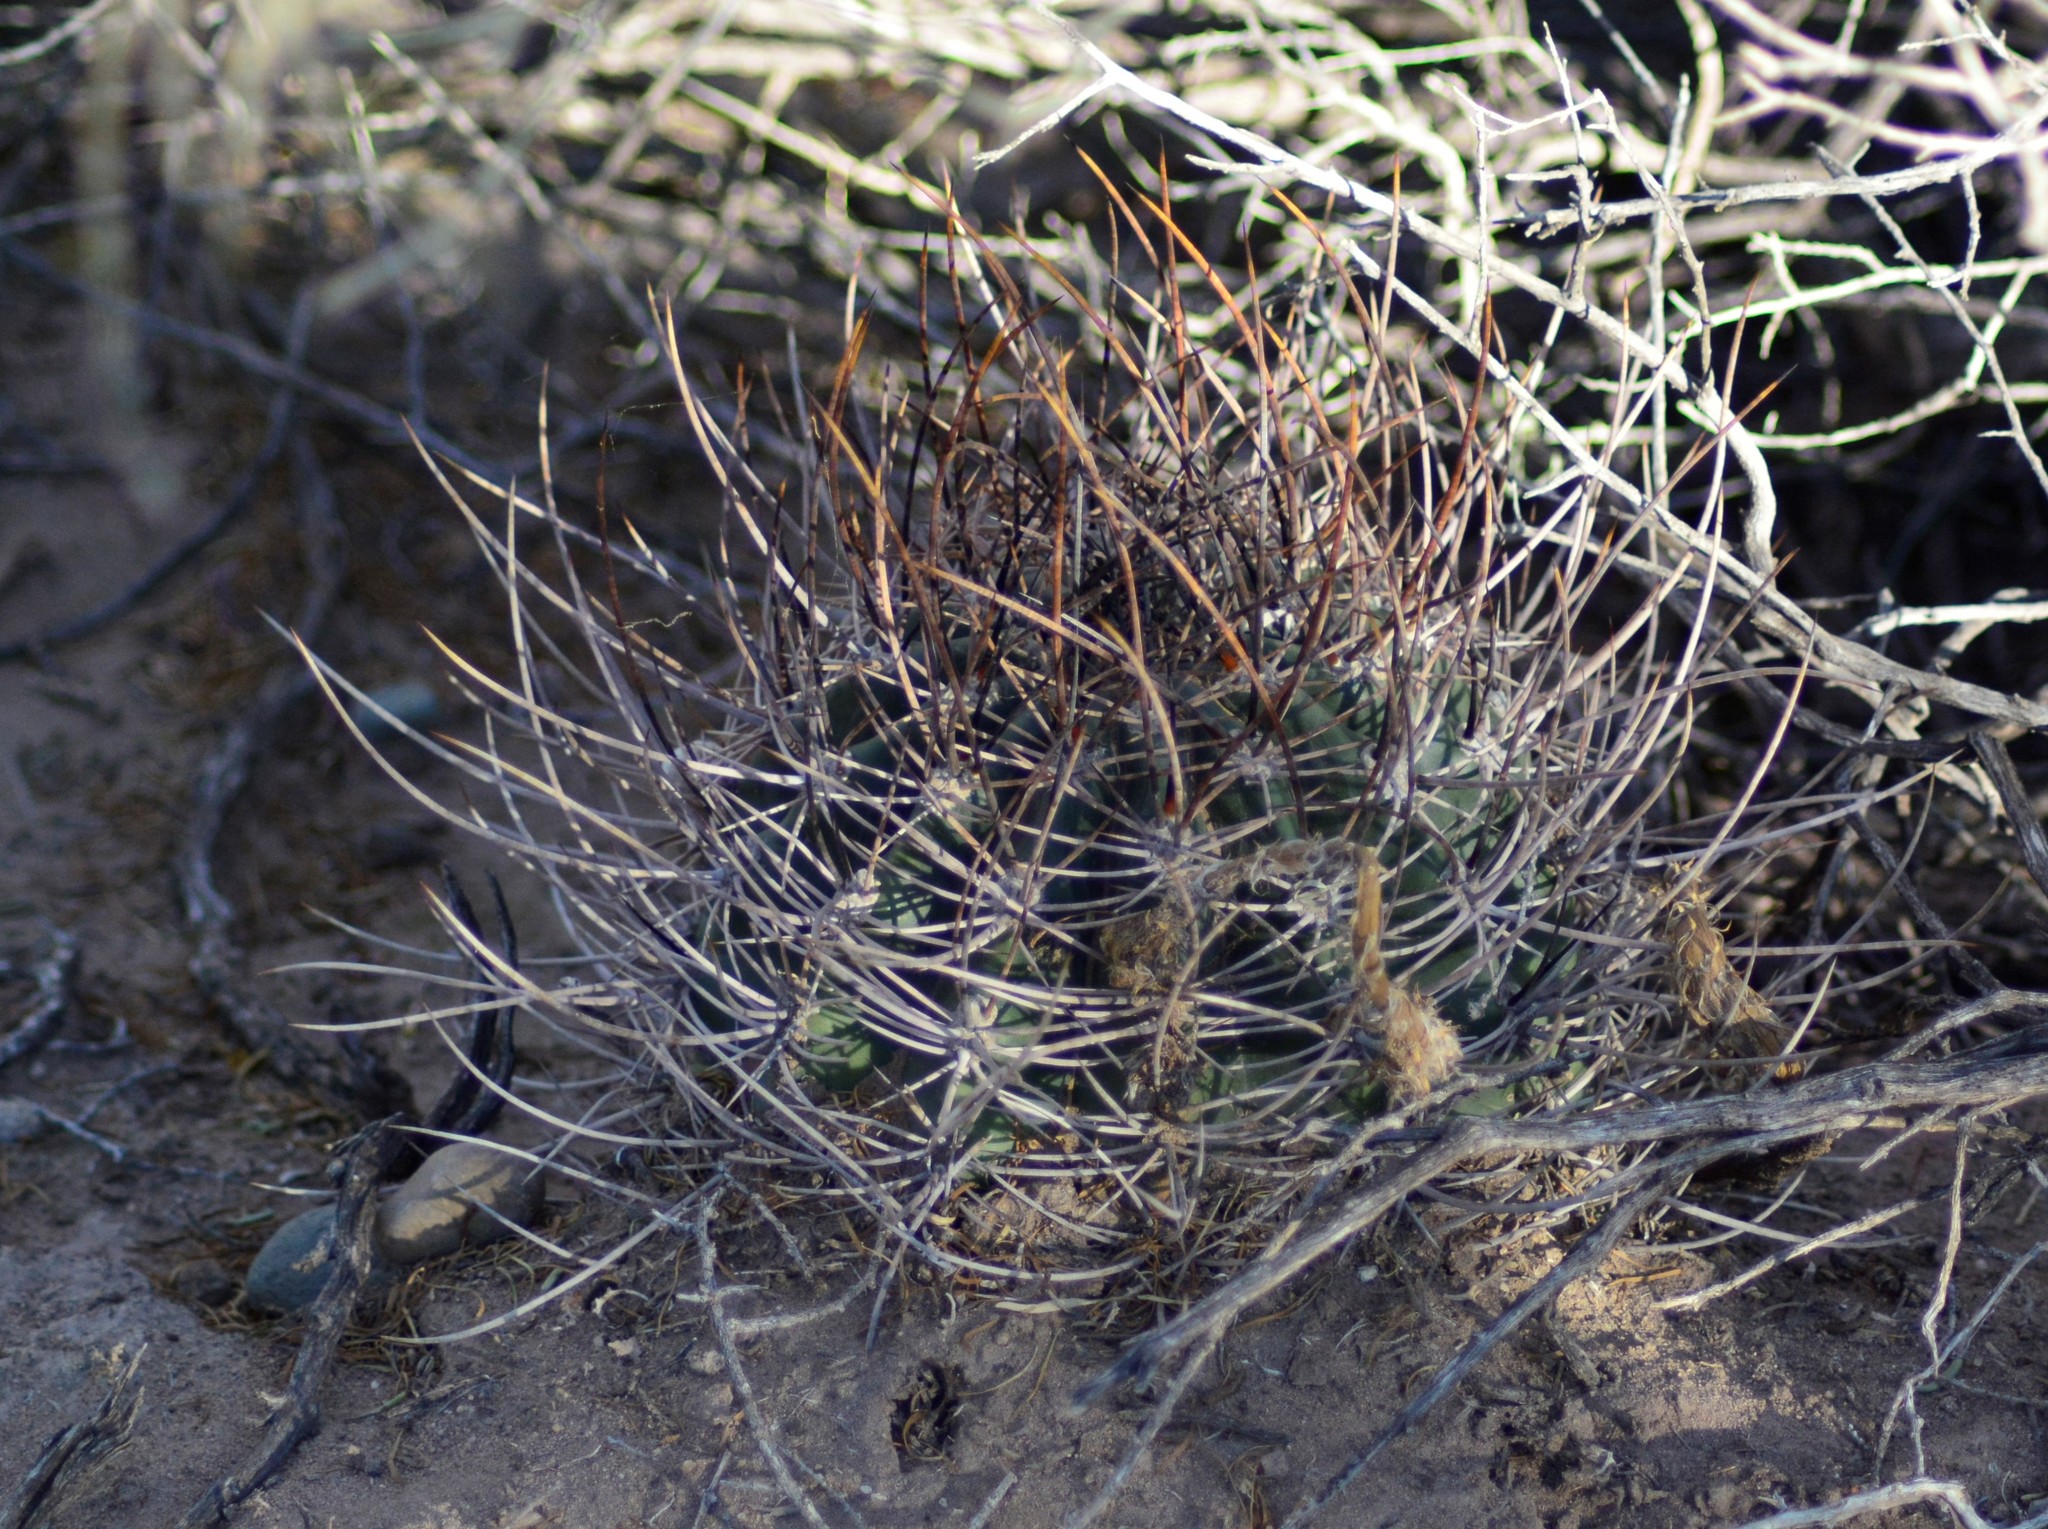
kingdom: Plantae
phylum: Tracheophyta
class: Magnoliopsida
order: Caryophyllales
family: Cactaceae
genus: Acanthocalycium
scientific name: Acanthocalycium leucanthum
